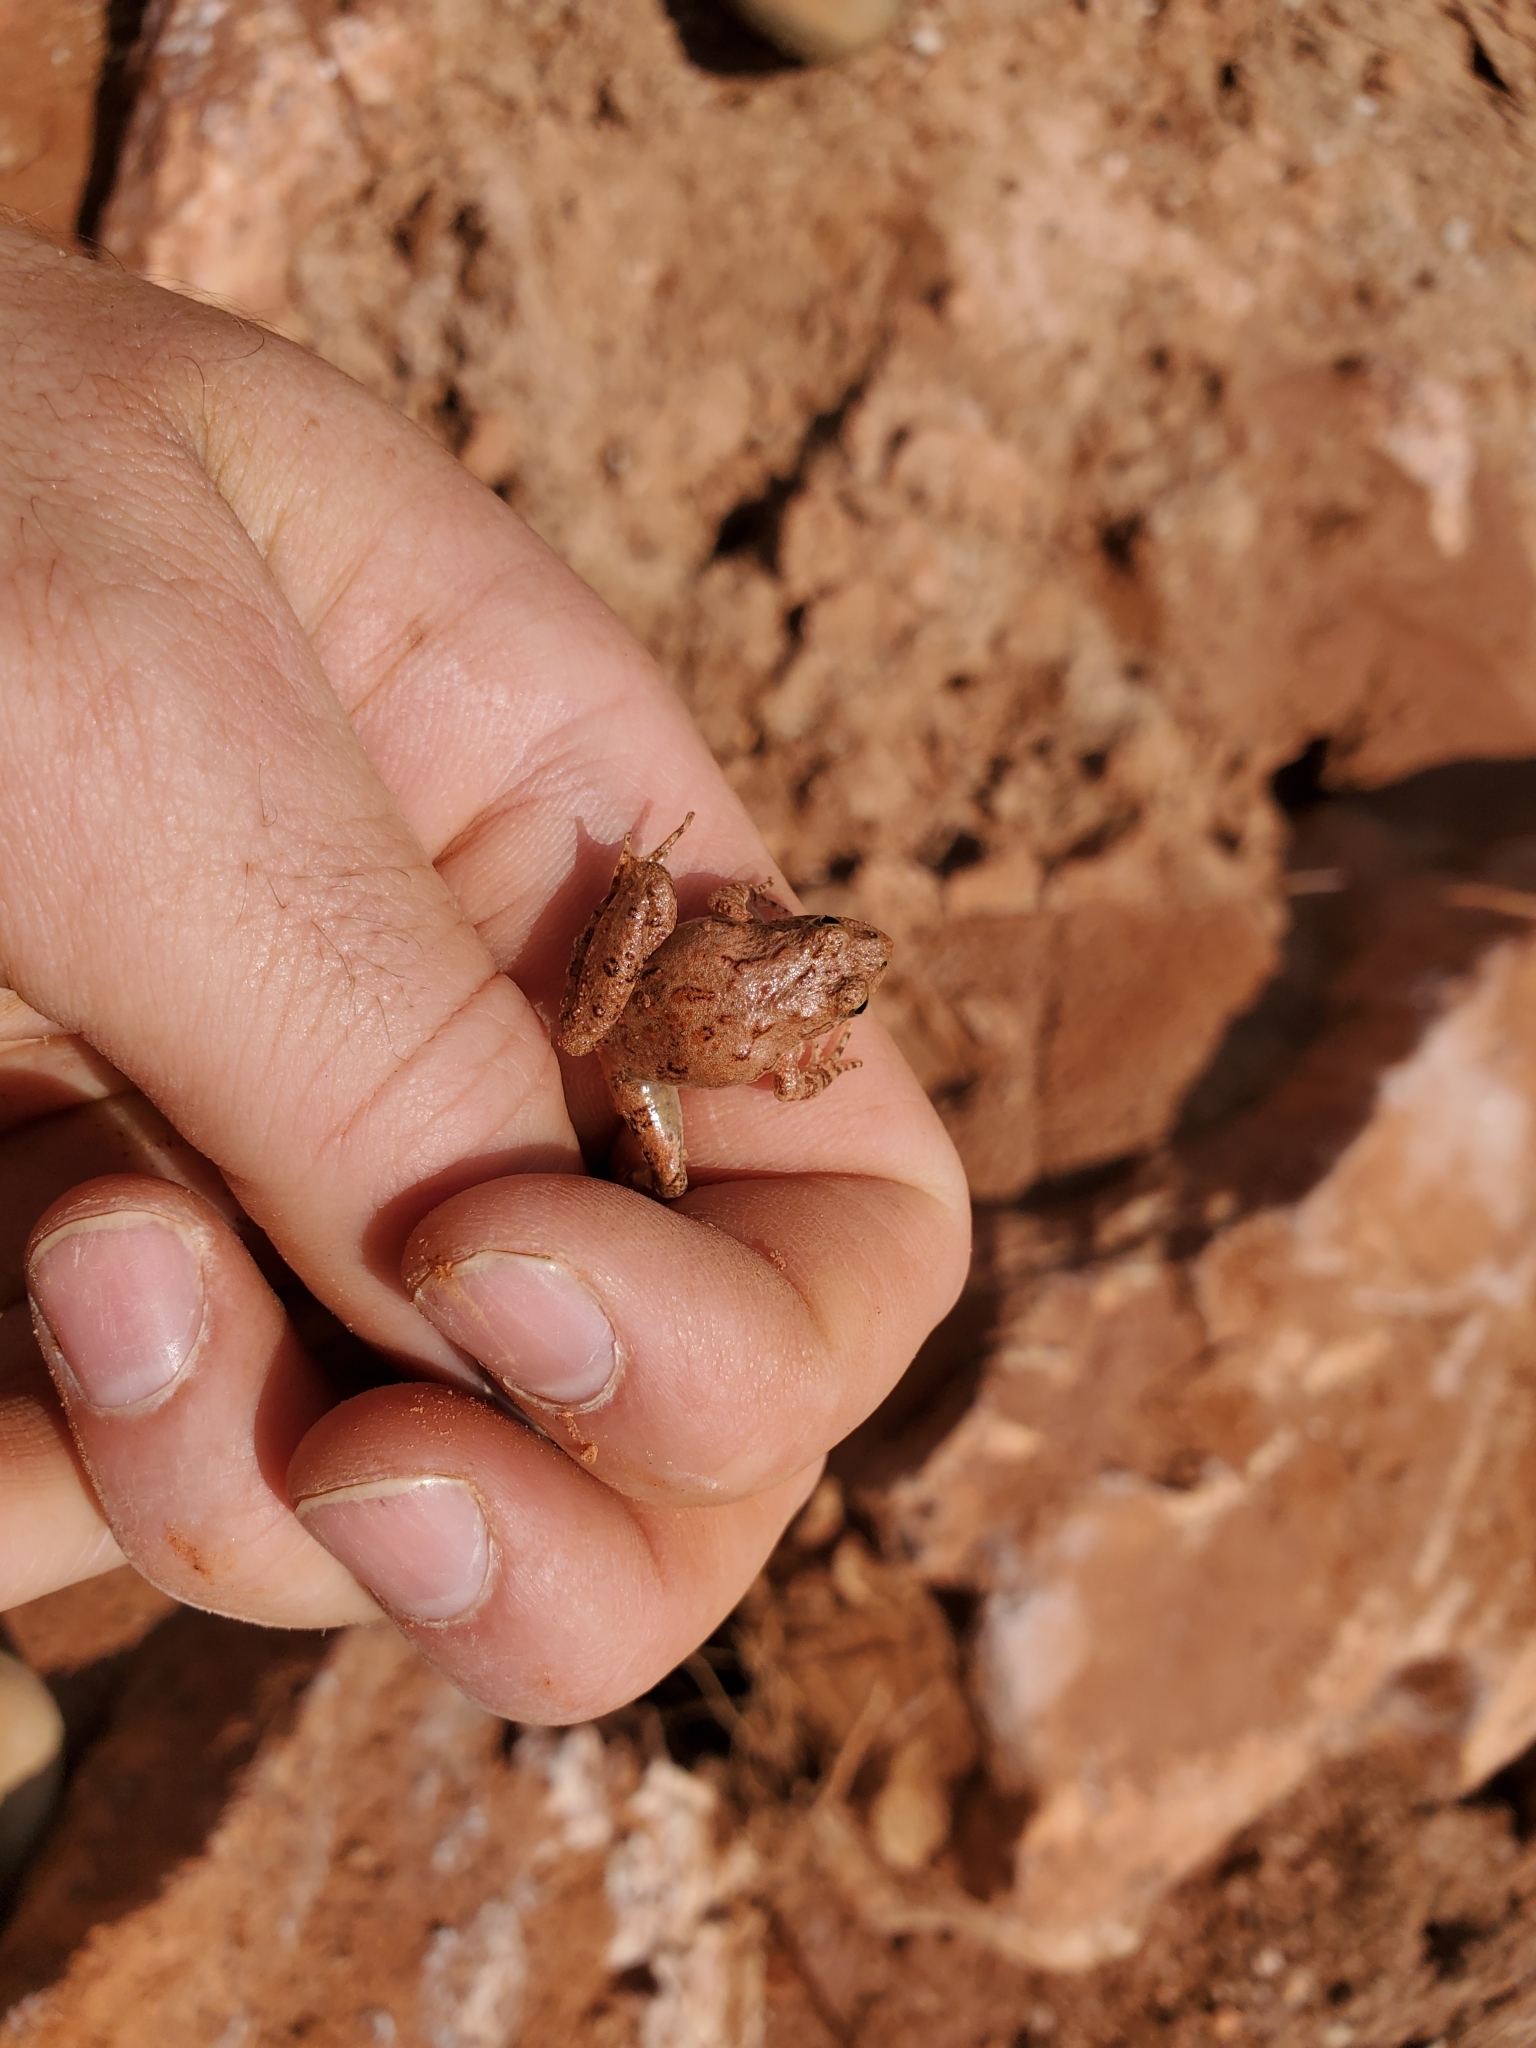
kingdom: Animalia
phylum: Chordata
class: Amphibia
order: Anura
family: Hylidae
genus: Acris
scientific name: Acris blanchardi
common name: Blanchard's cricket frog
